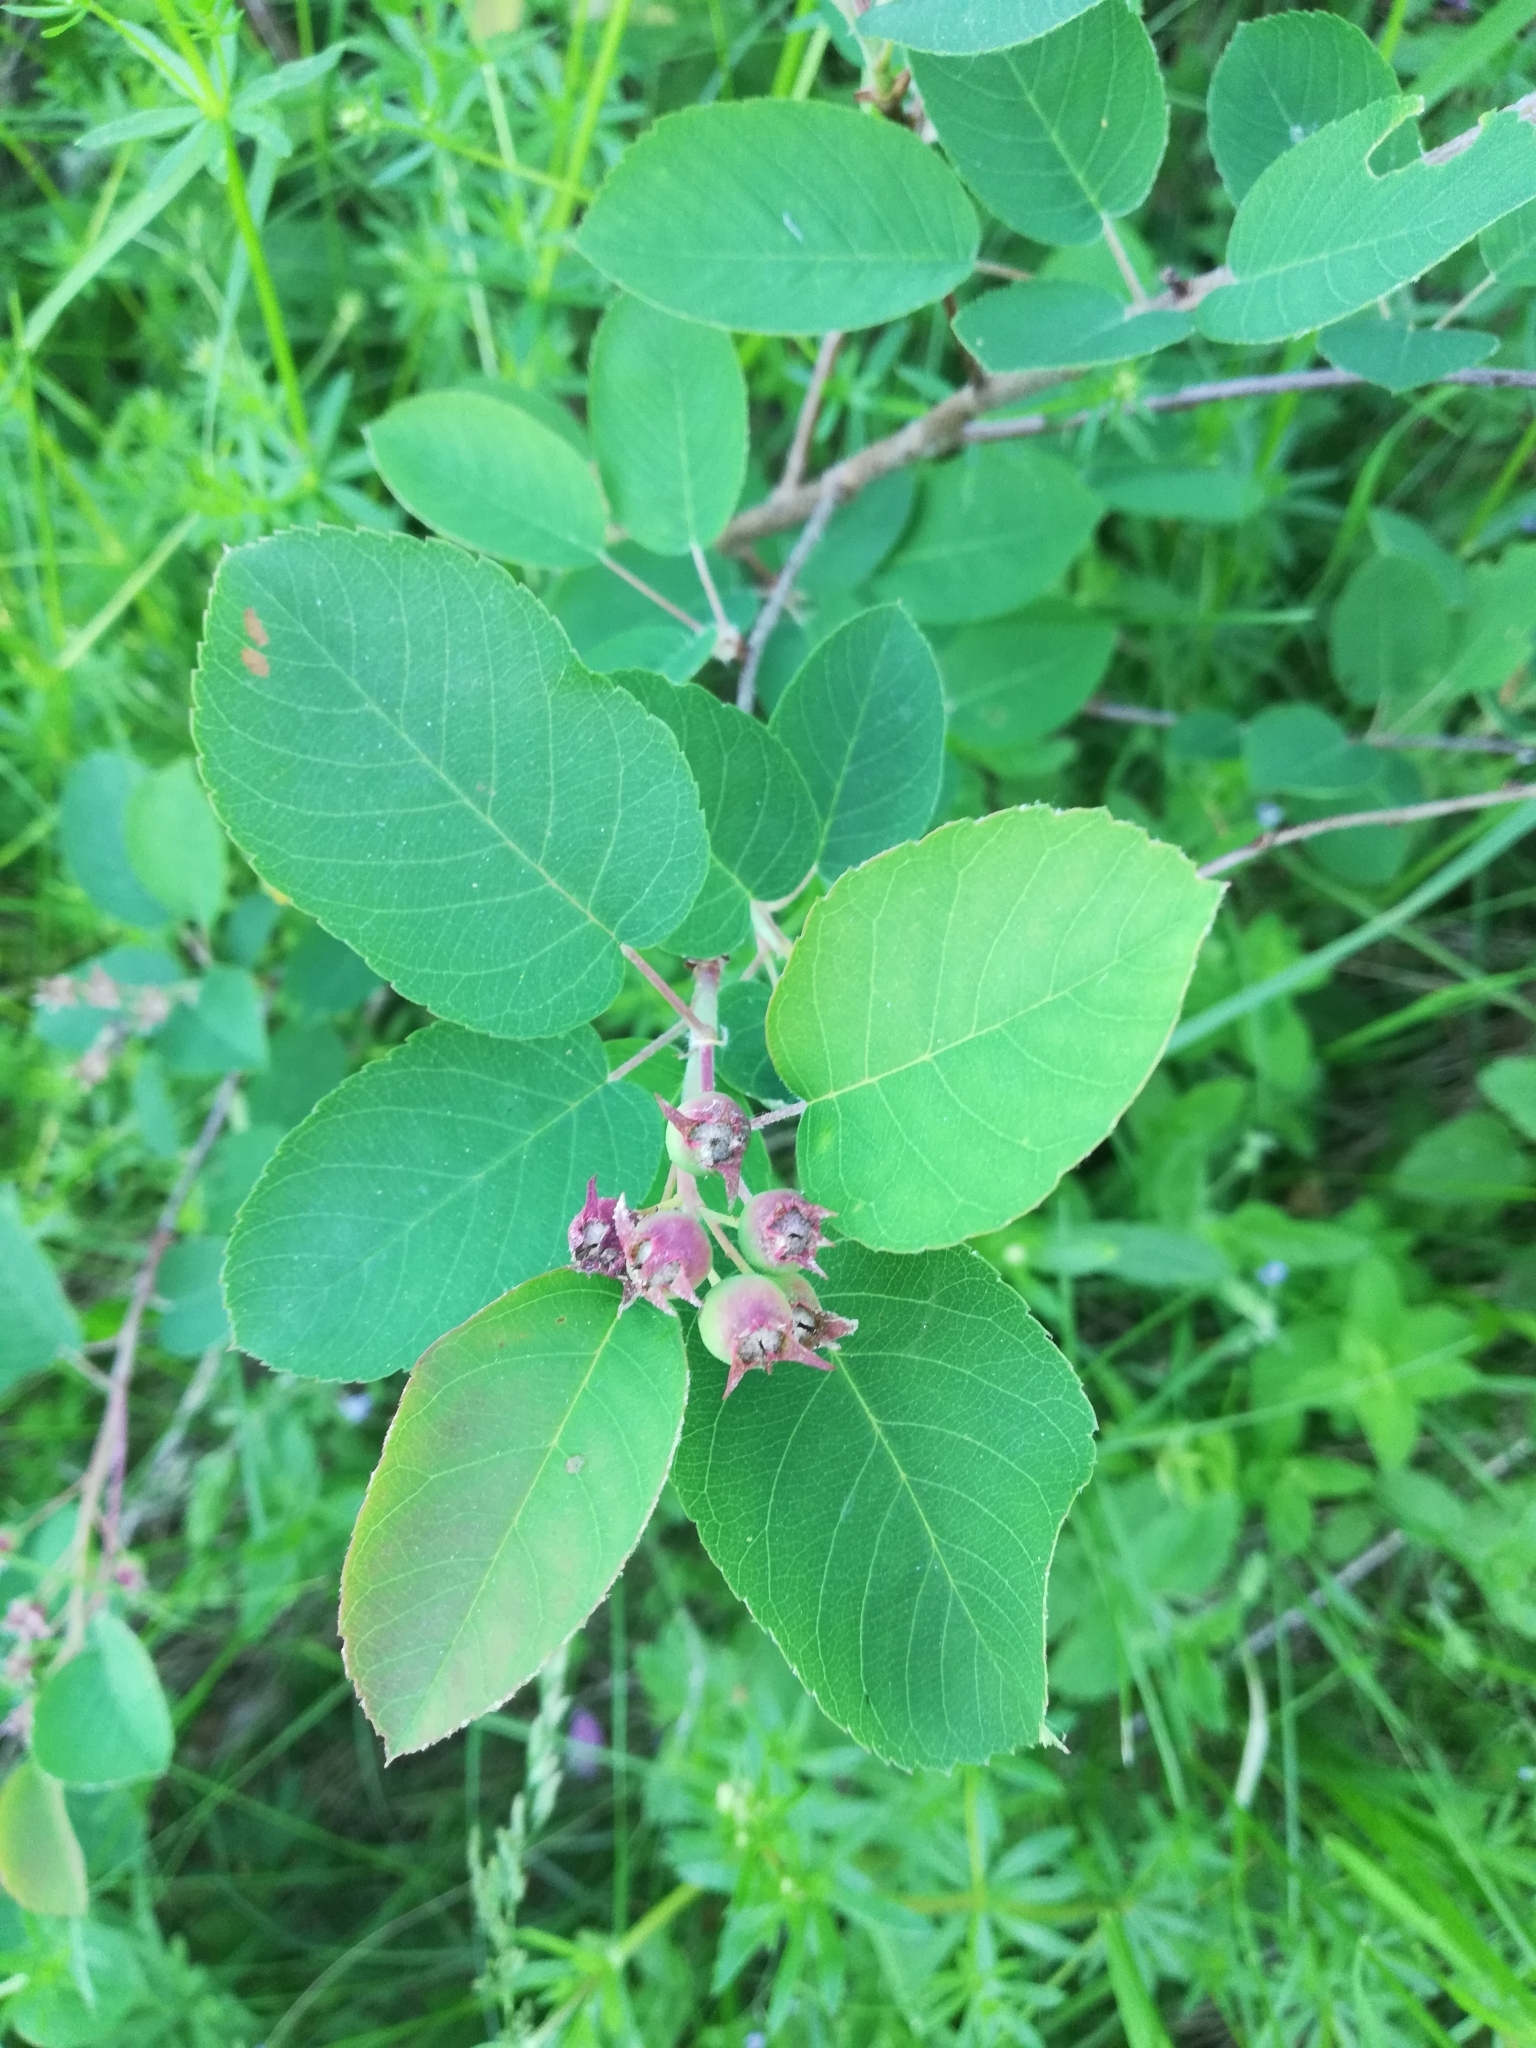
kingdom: Plantae
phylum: Tracheophyta
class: Magnoliopsida
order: Rosales
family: Rosaceae
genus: Amelanchier
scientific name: Amelanchier
